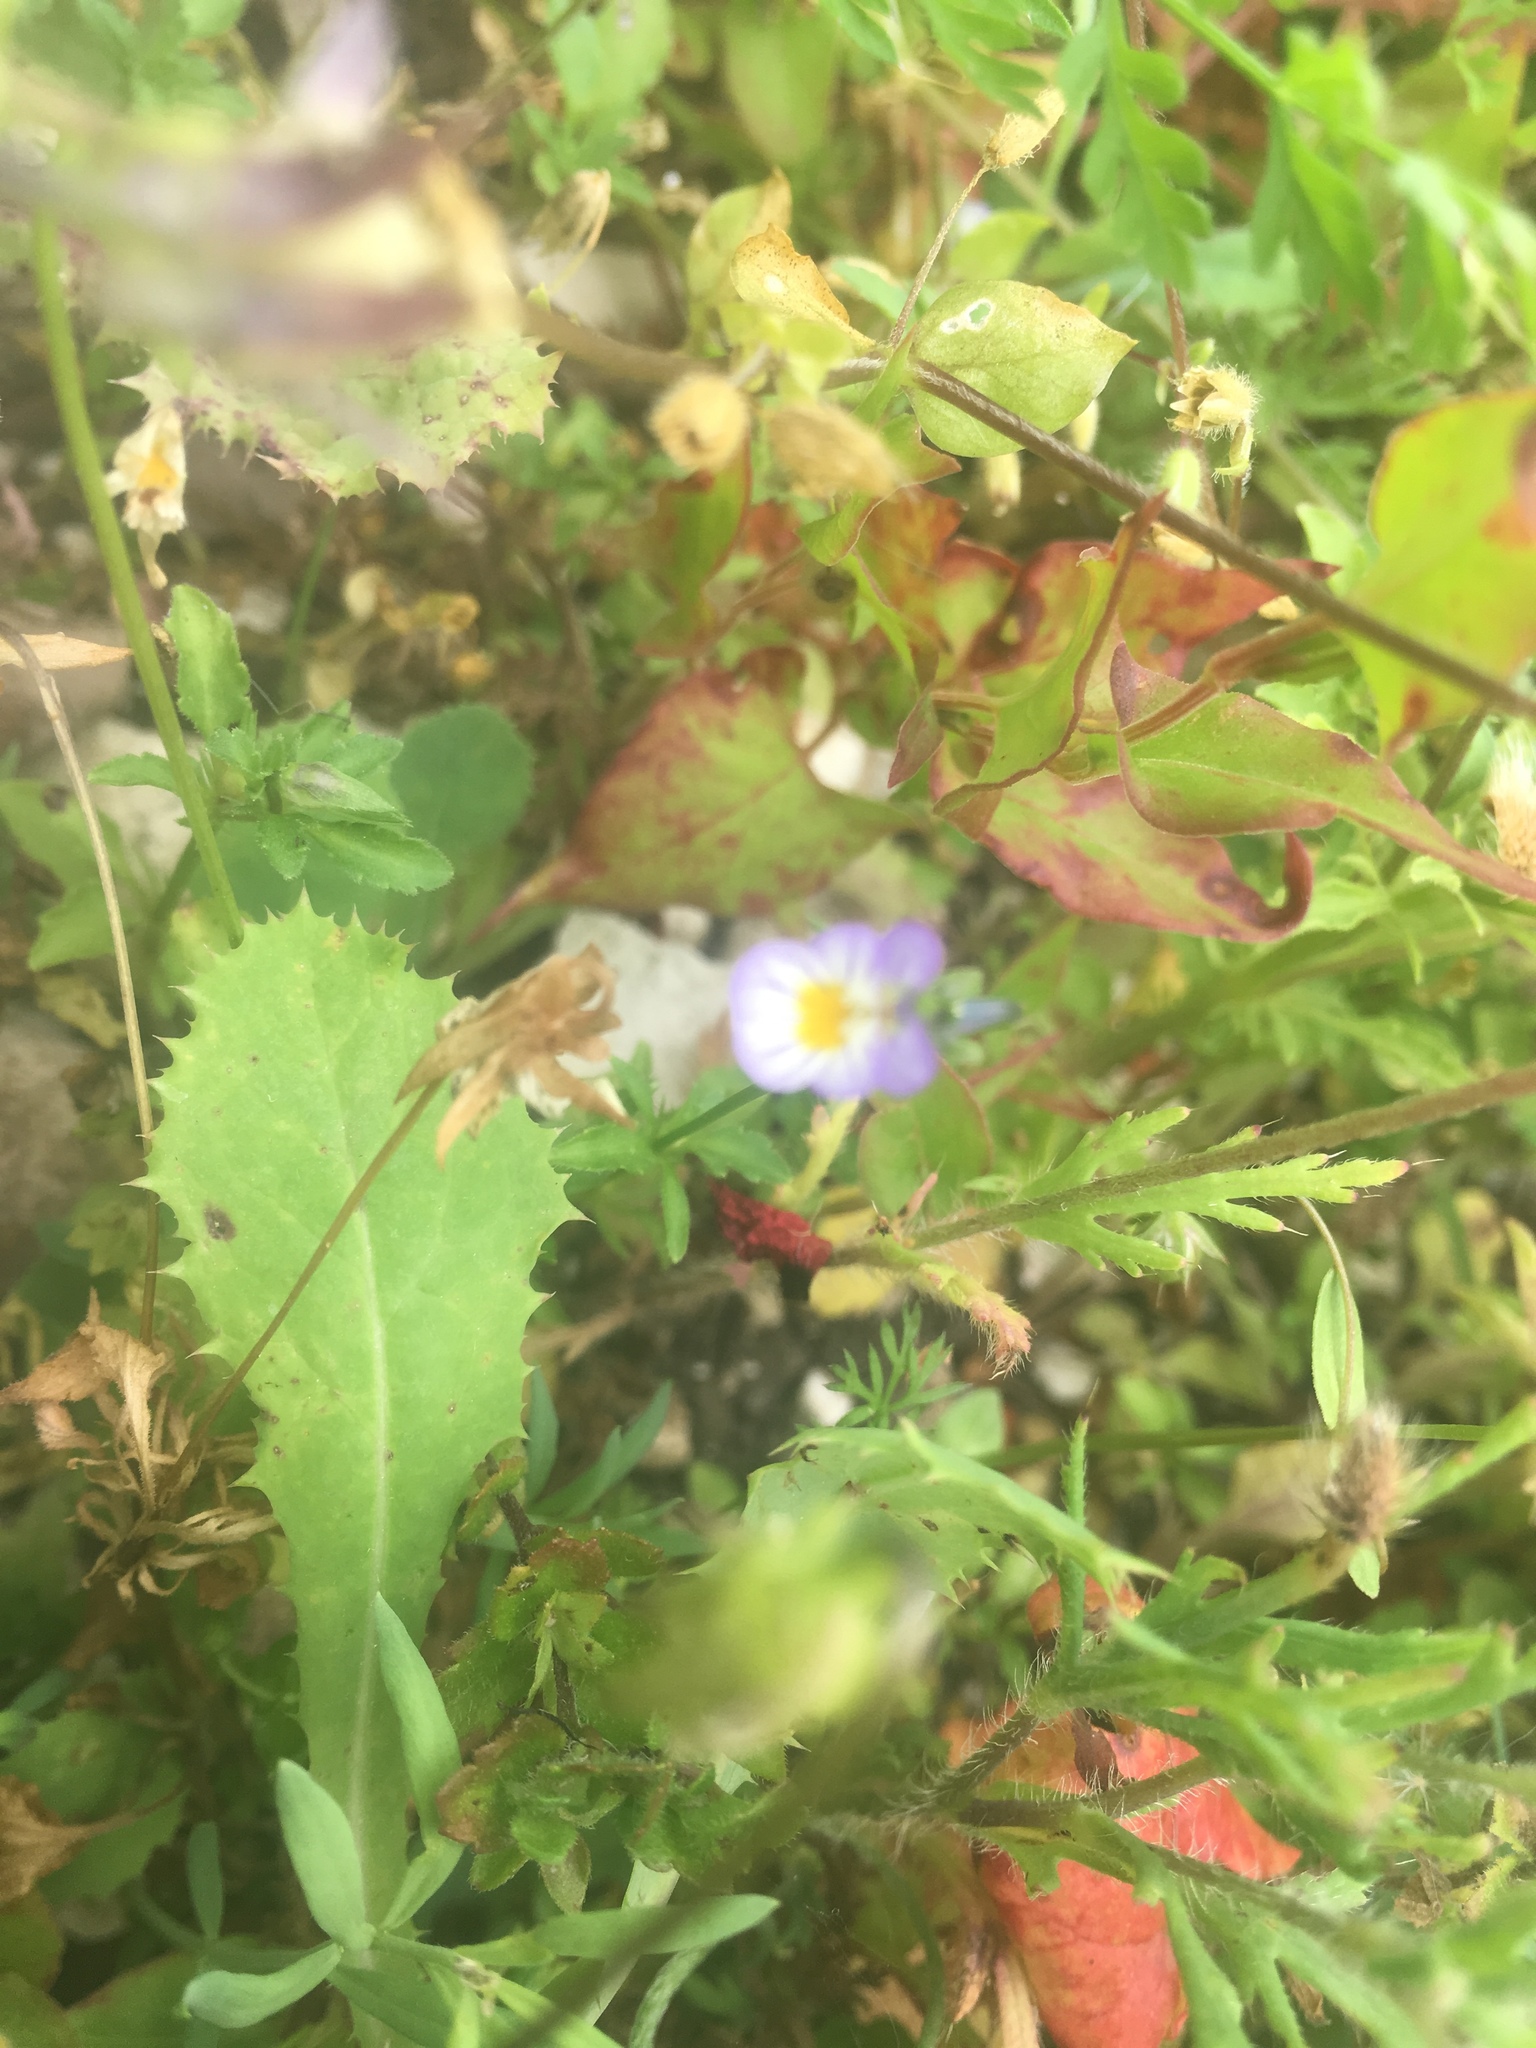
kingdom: Plantae
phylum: Tracheophyta
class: Magnoliopsida
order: Malpighiales
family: Violaceae
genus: Viola
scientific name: Viola arvensis
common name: Field pansy
